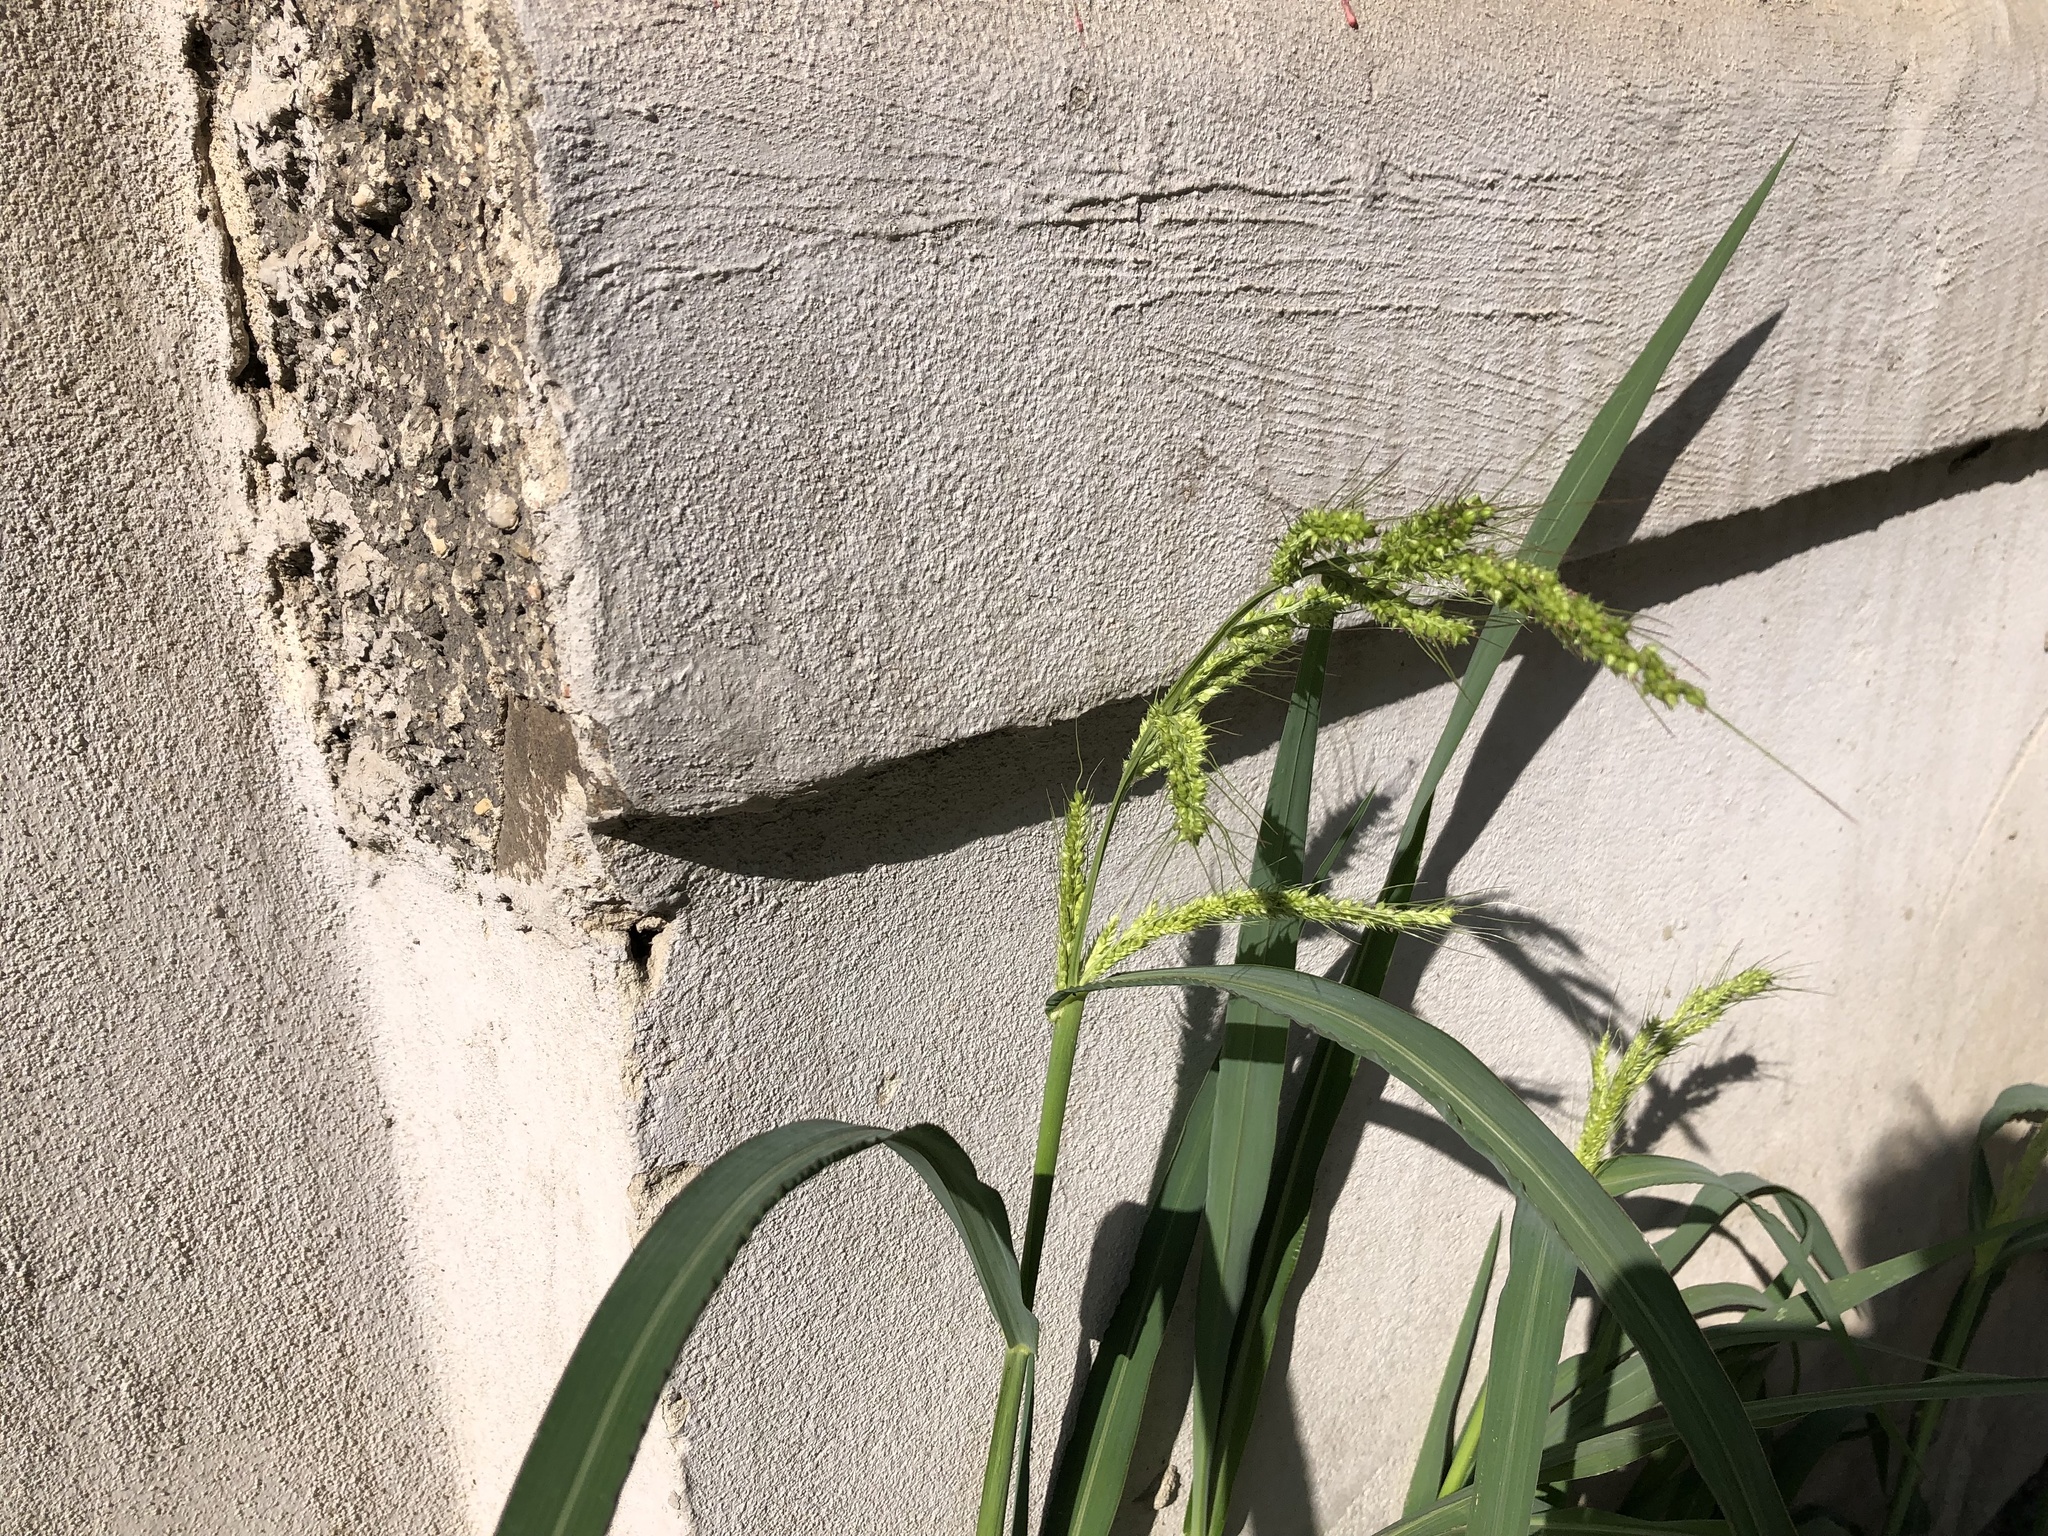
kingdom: Plantae
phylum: Tracheophyta
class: Liliopsida
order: Poales
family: Poaceae
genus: Echinochloa
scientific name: Echinochloa crus-galli
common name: Cockspur
